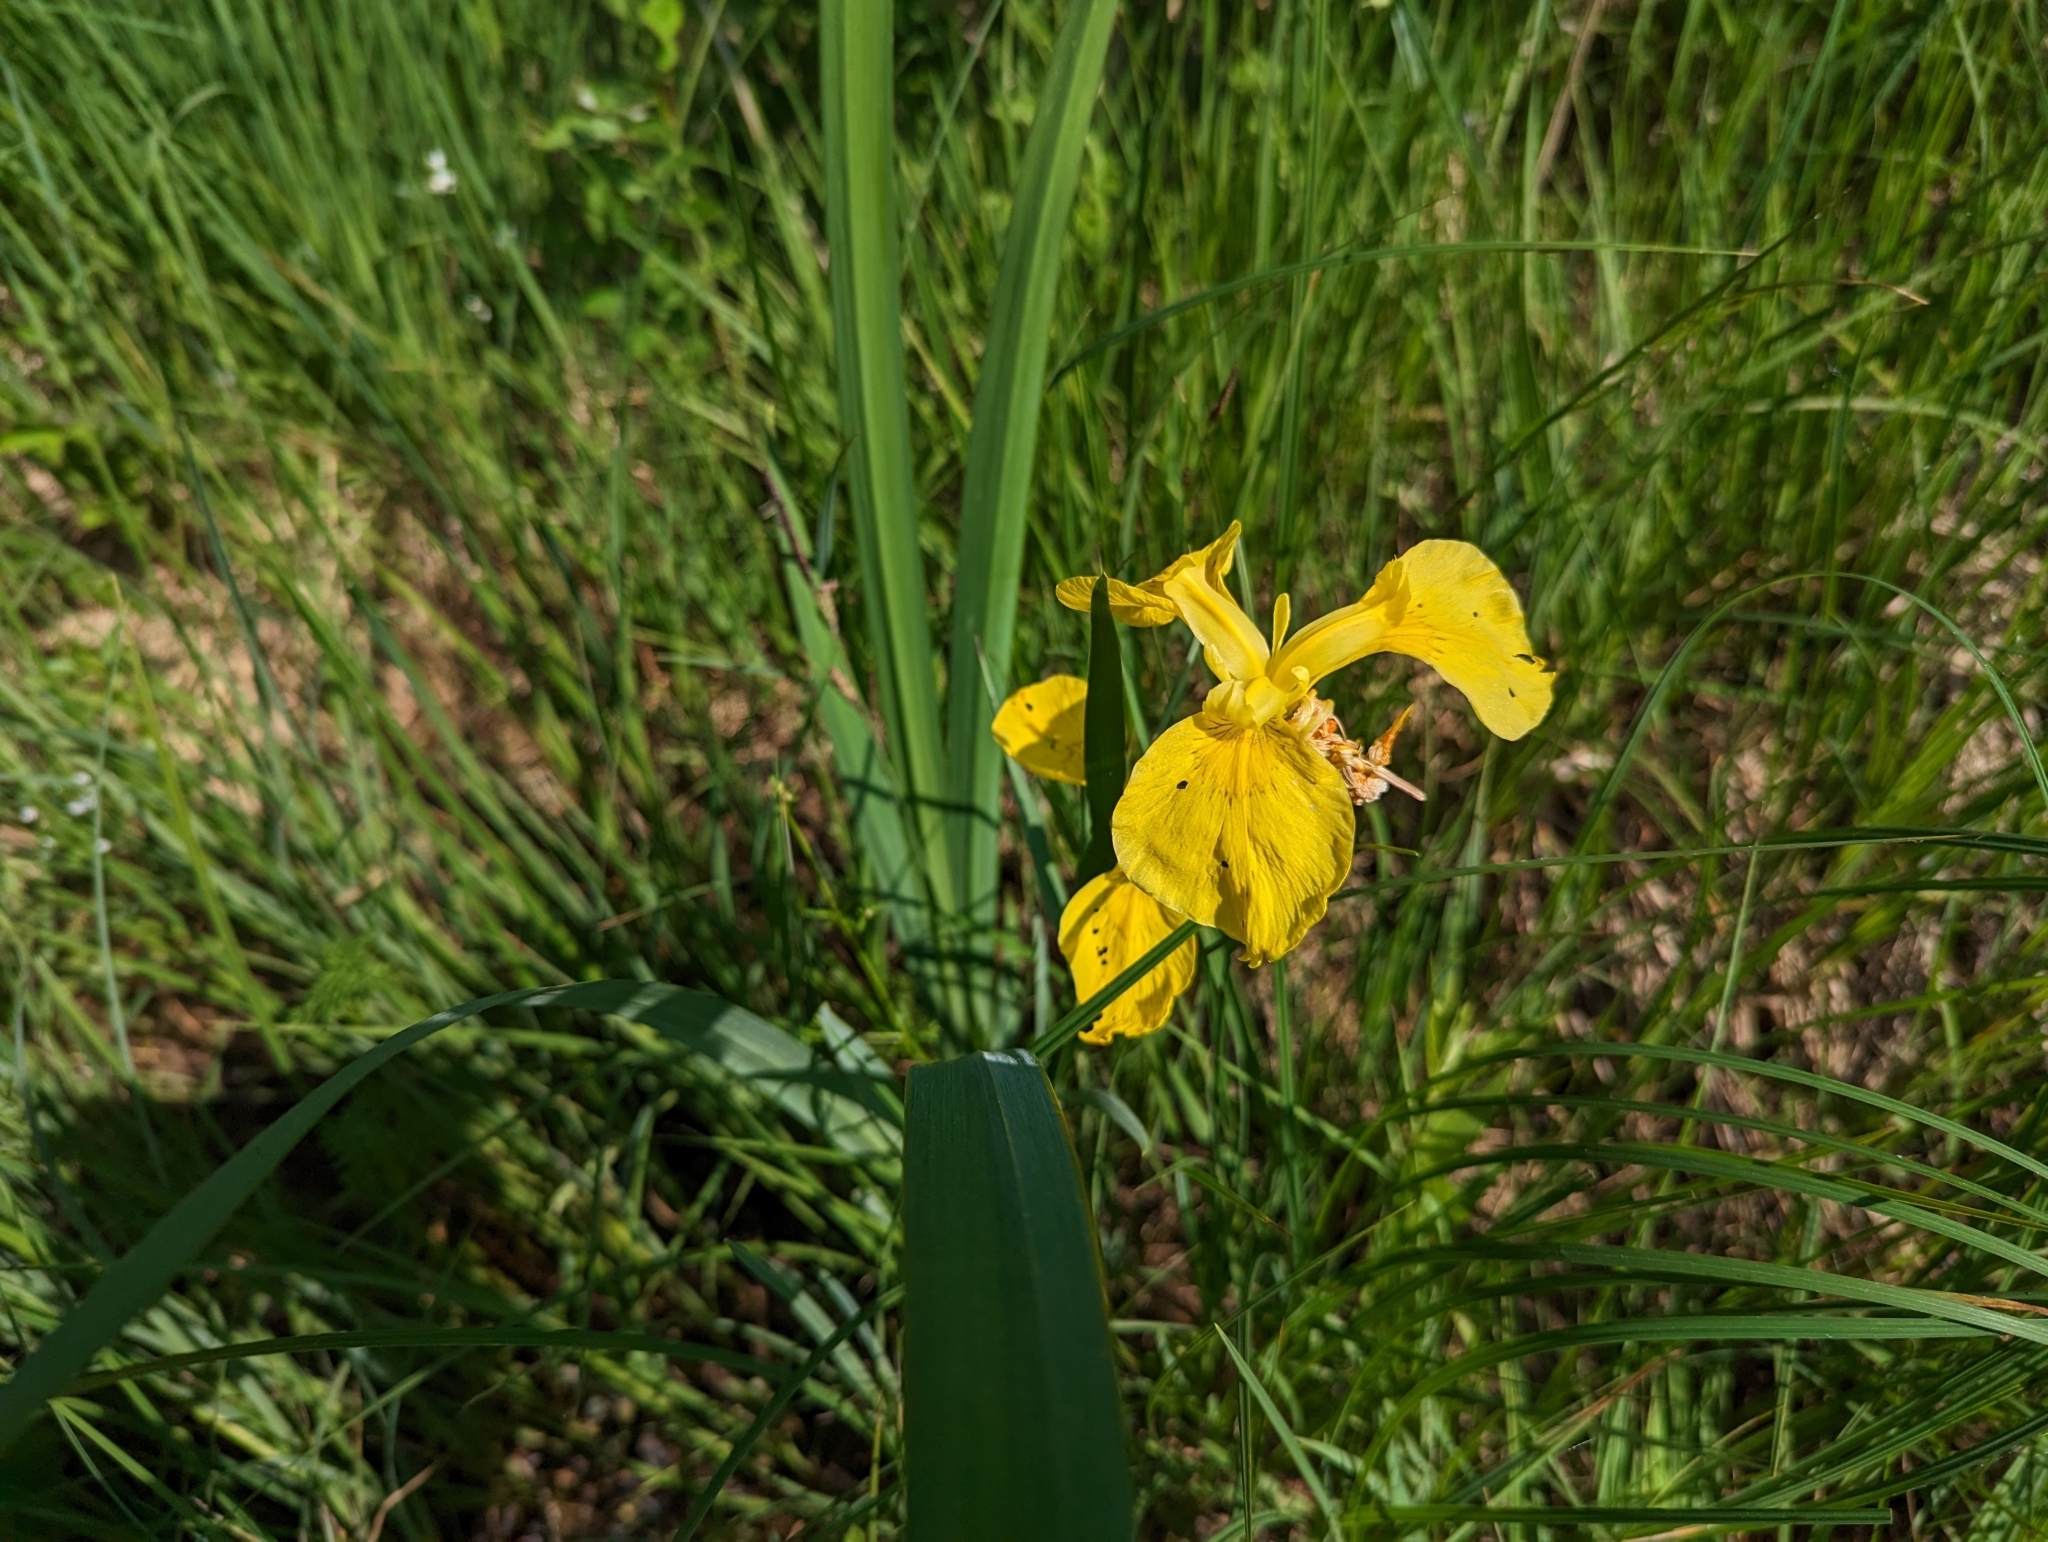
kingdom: Plantae
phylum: Tracheophyta
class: Liliopsida
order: Asparagales
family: Iridaceae
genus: Iris
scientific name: Iris pseudacorus
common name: Yellow flag
